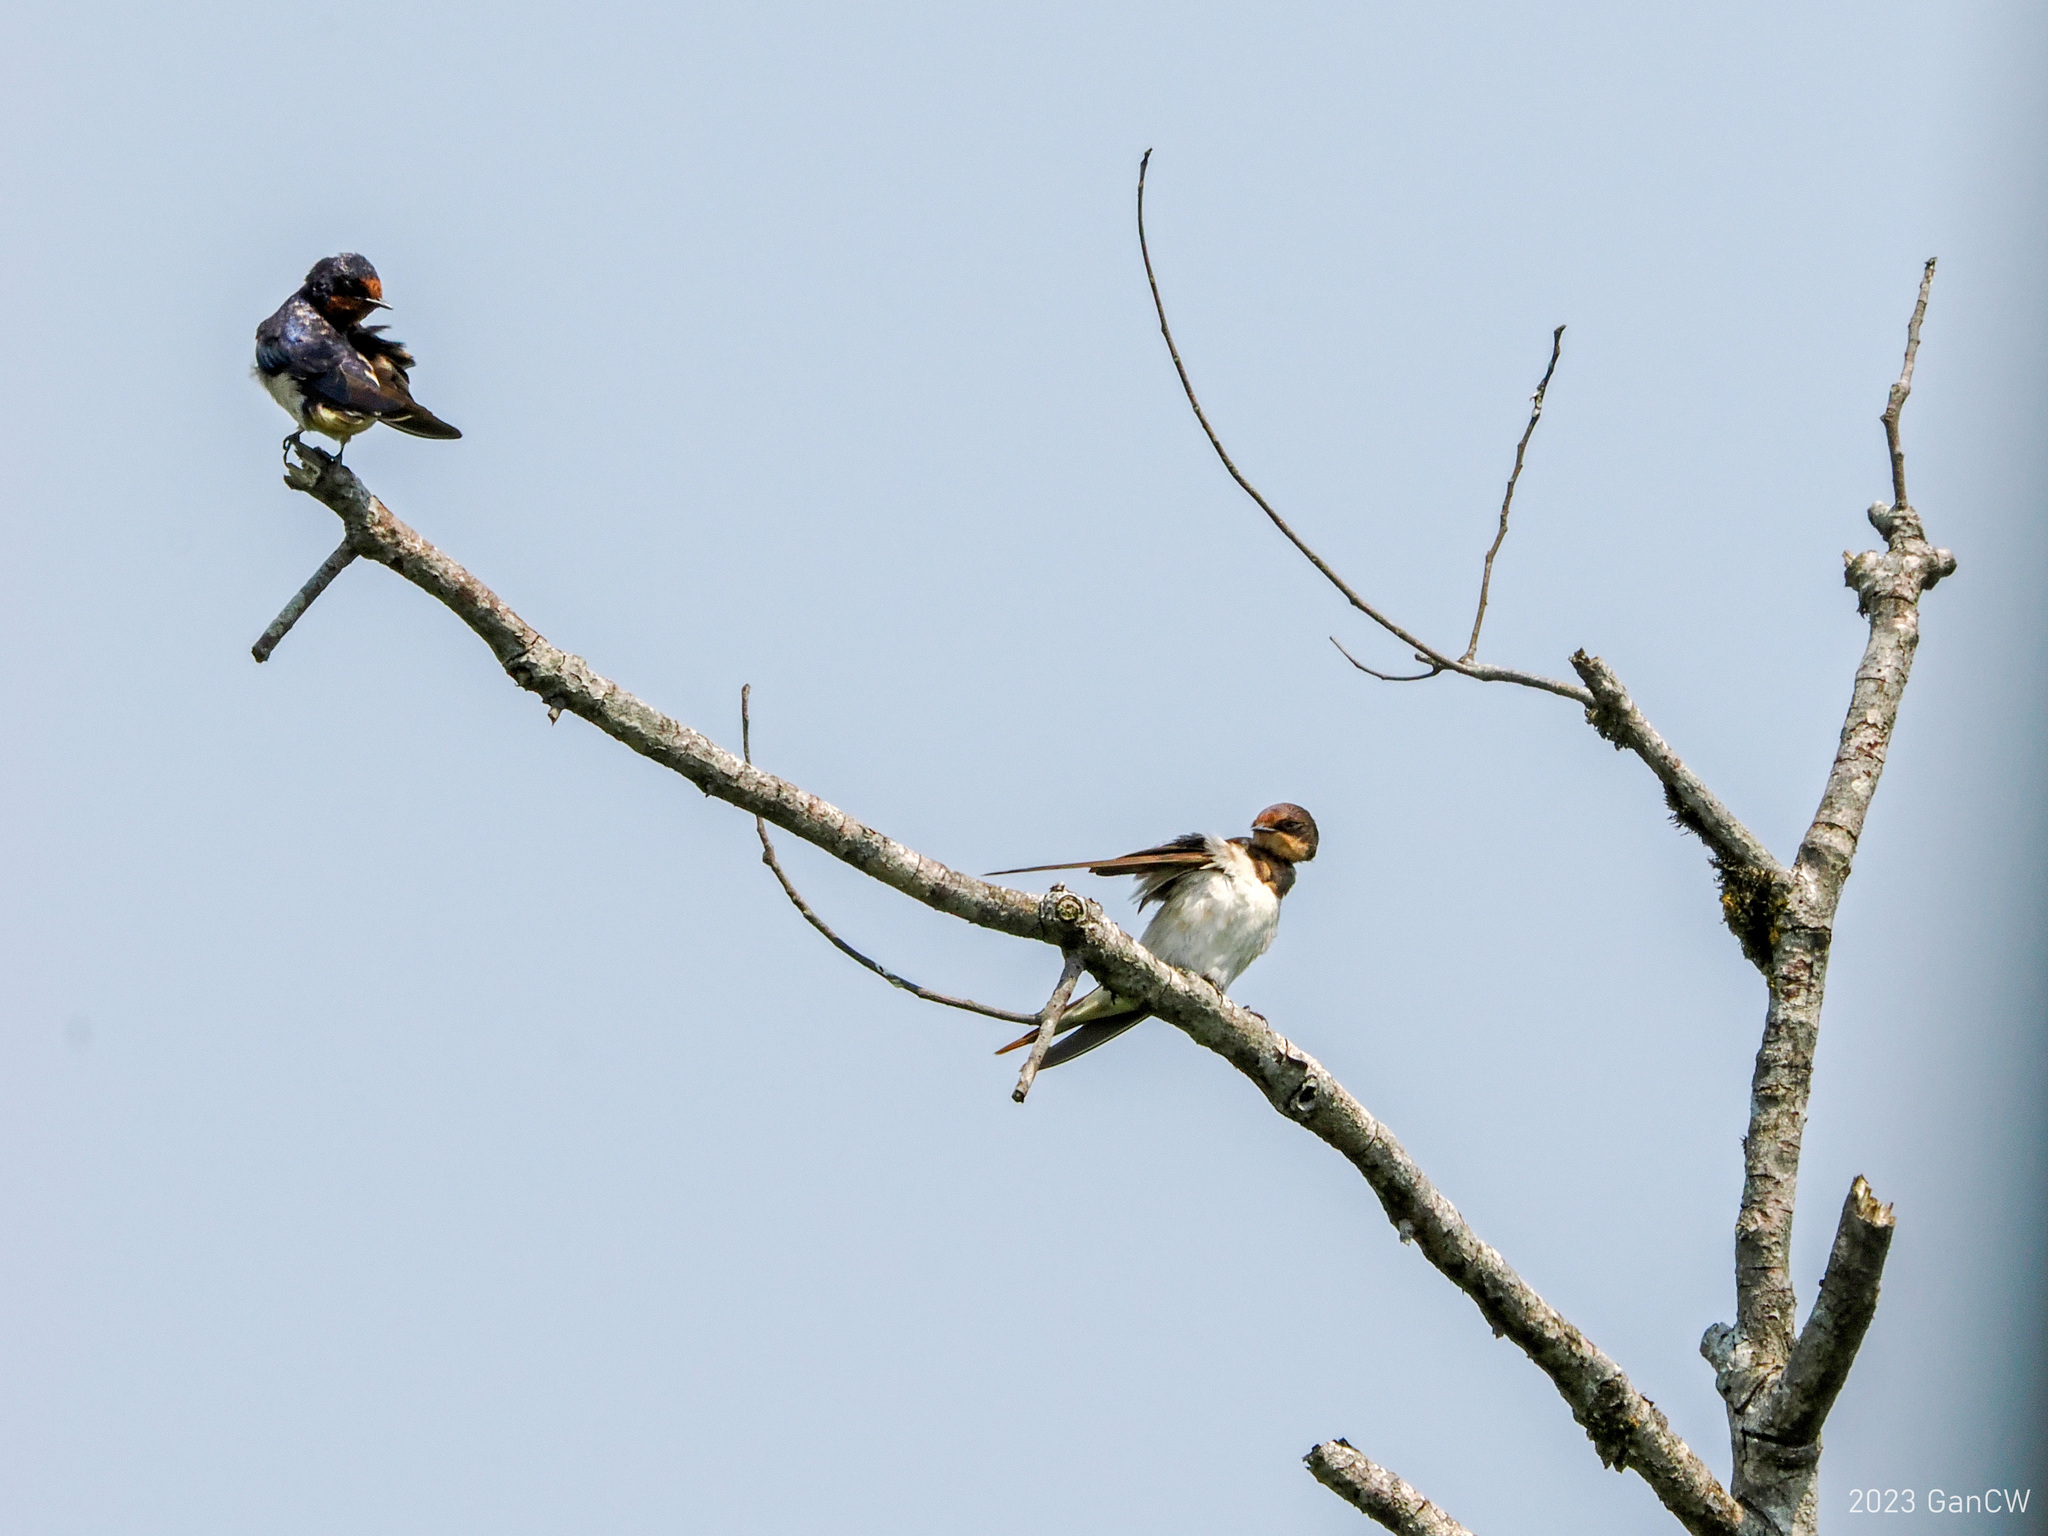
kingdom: Animalia
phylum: Chordata
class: Aves
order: Passeriformes
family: Hirundinidae
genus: Hirundo
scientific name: Hirundo rustica
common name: Barn swallow
